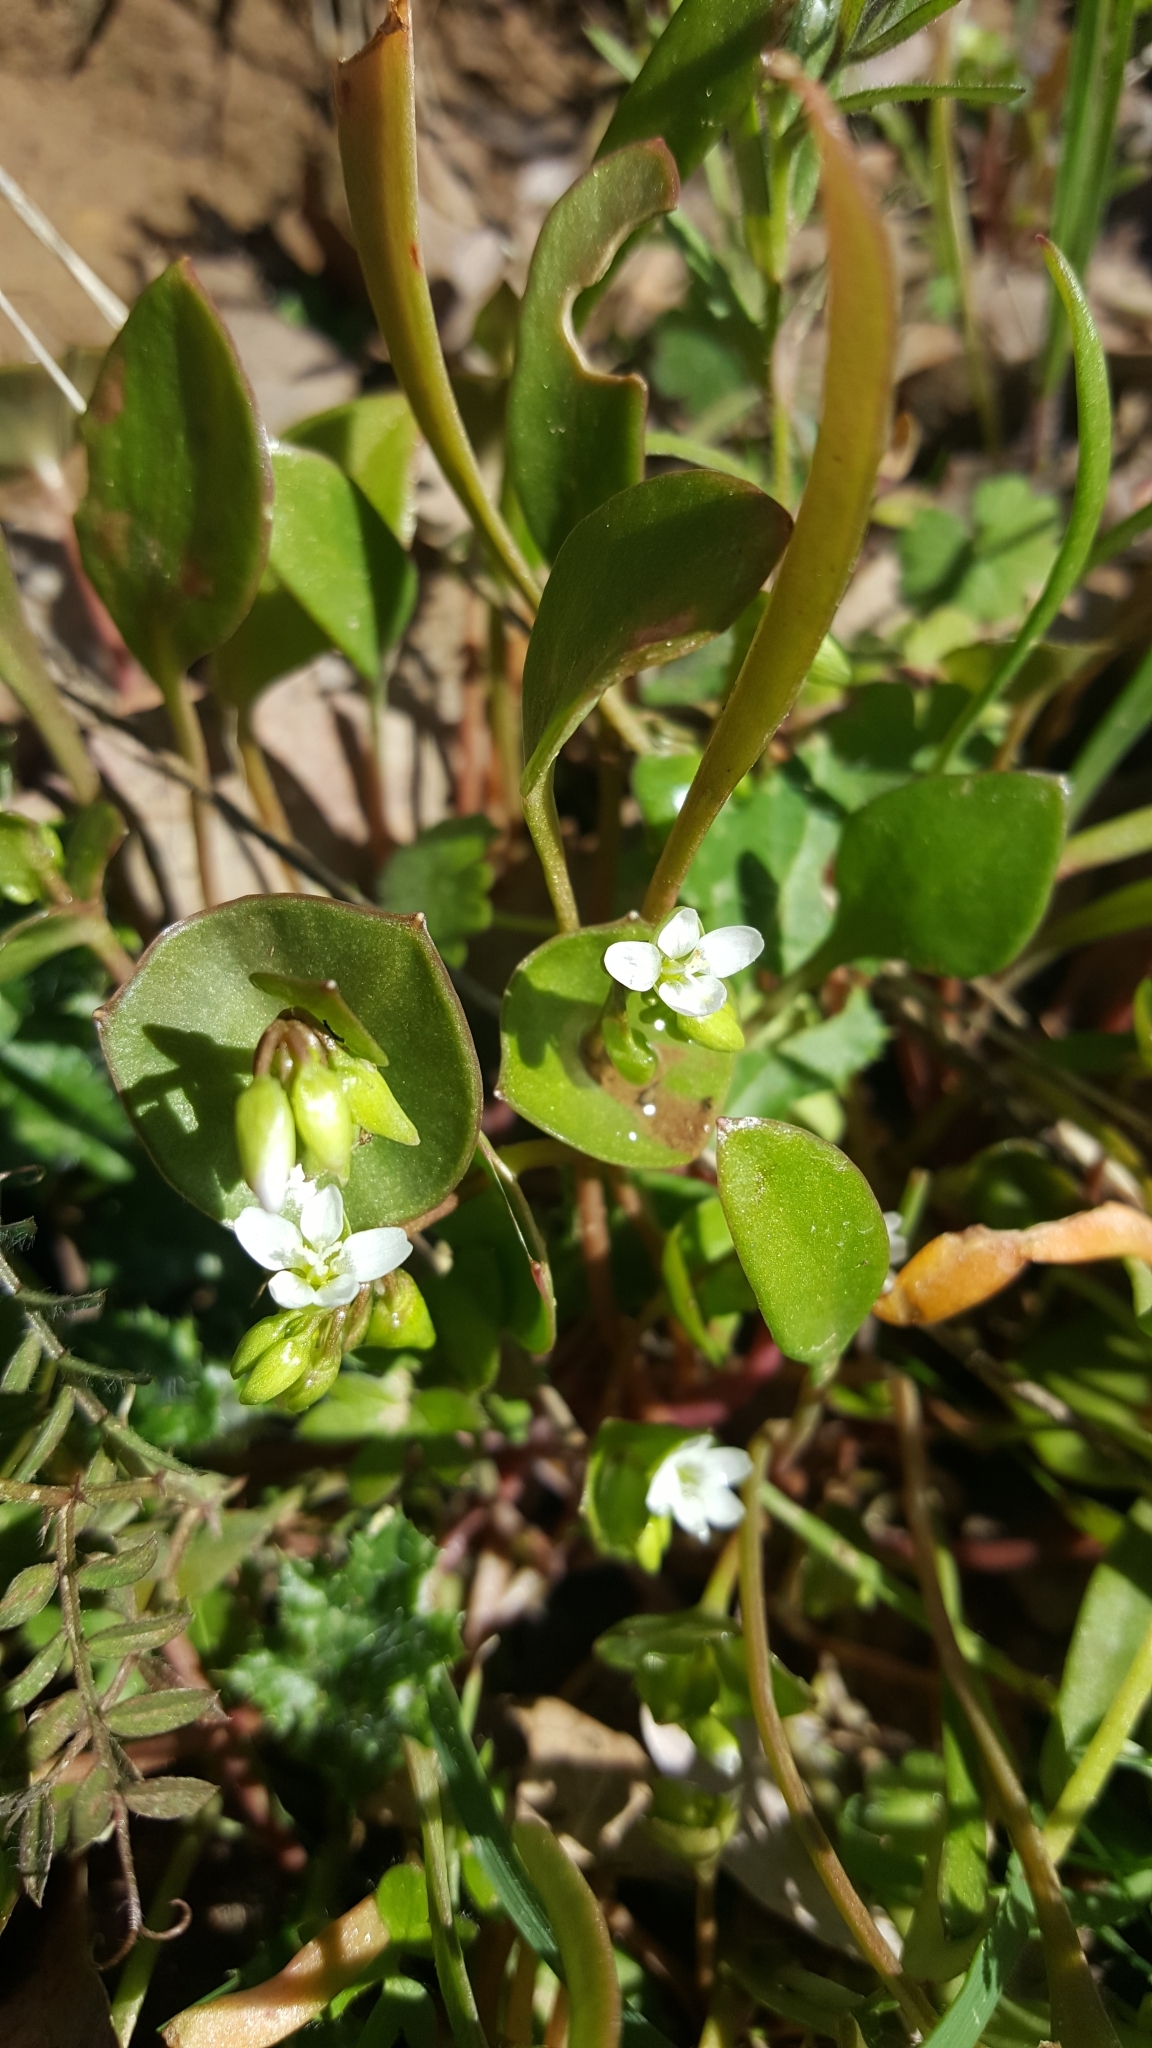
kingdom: Plantae
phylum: Tracheophyta
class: Magnoliopsida
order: Caryophyllales
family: Montiaceae
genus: Claytonia
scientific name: Claytonia perfoliata
